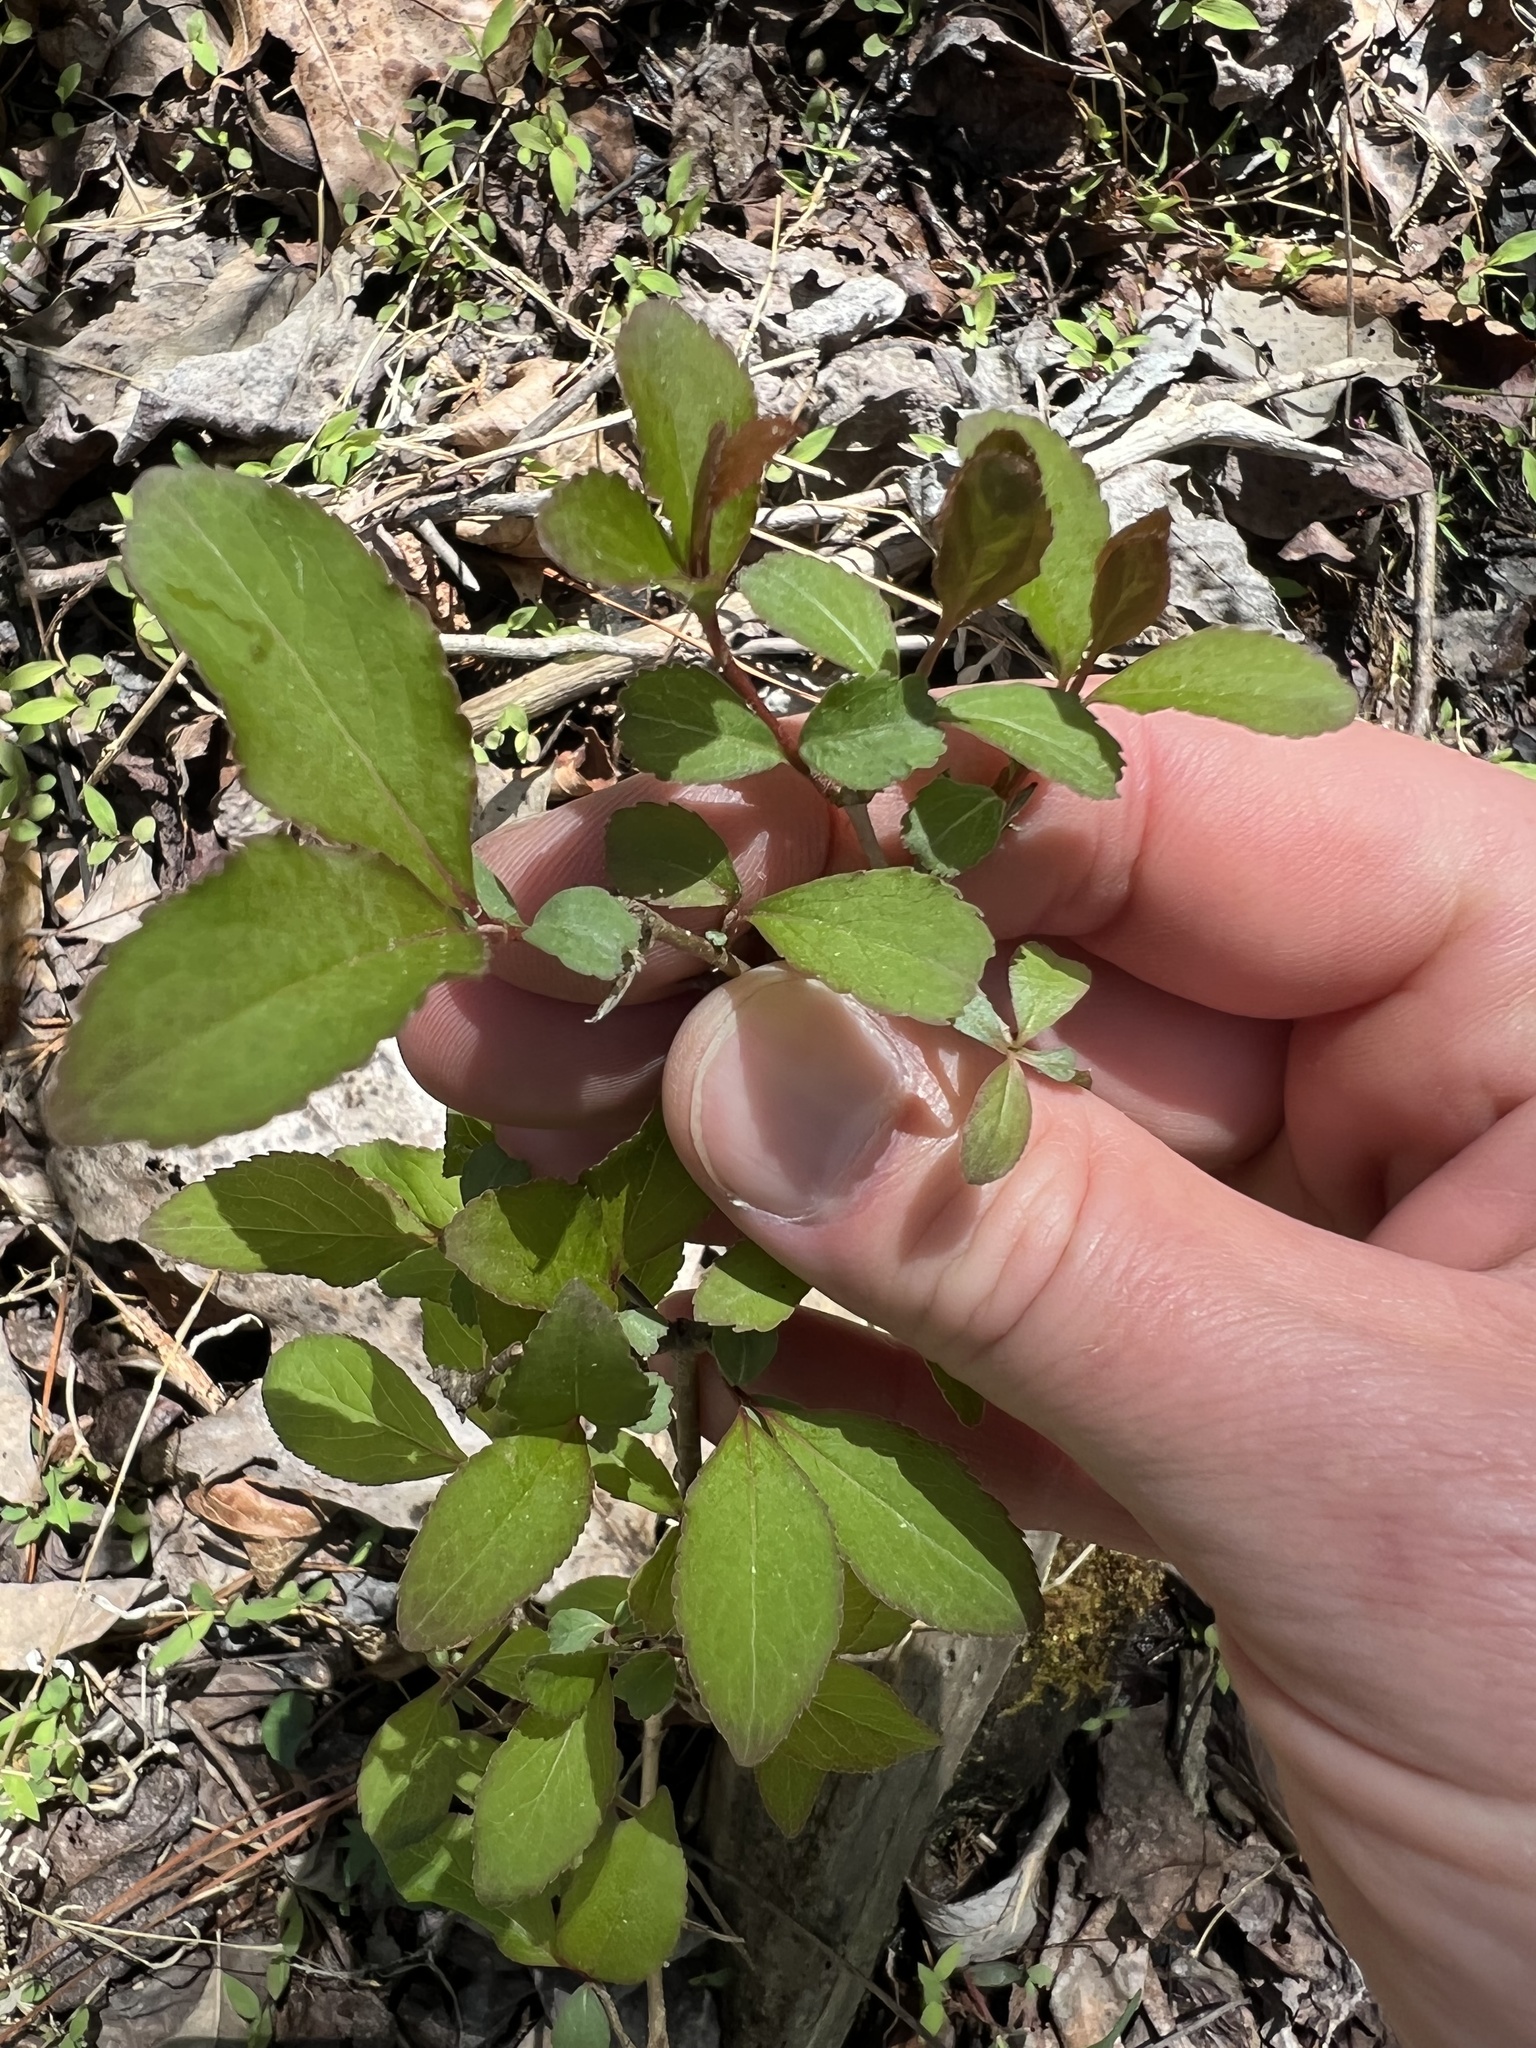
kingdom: Plantae
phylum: Tracheophyta
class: Magnoliopsida
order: Dipsacales
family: Viburnaceae
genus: Viburnum
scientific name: Viburnum prunifolium
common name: Black haw
